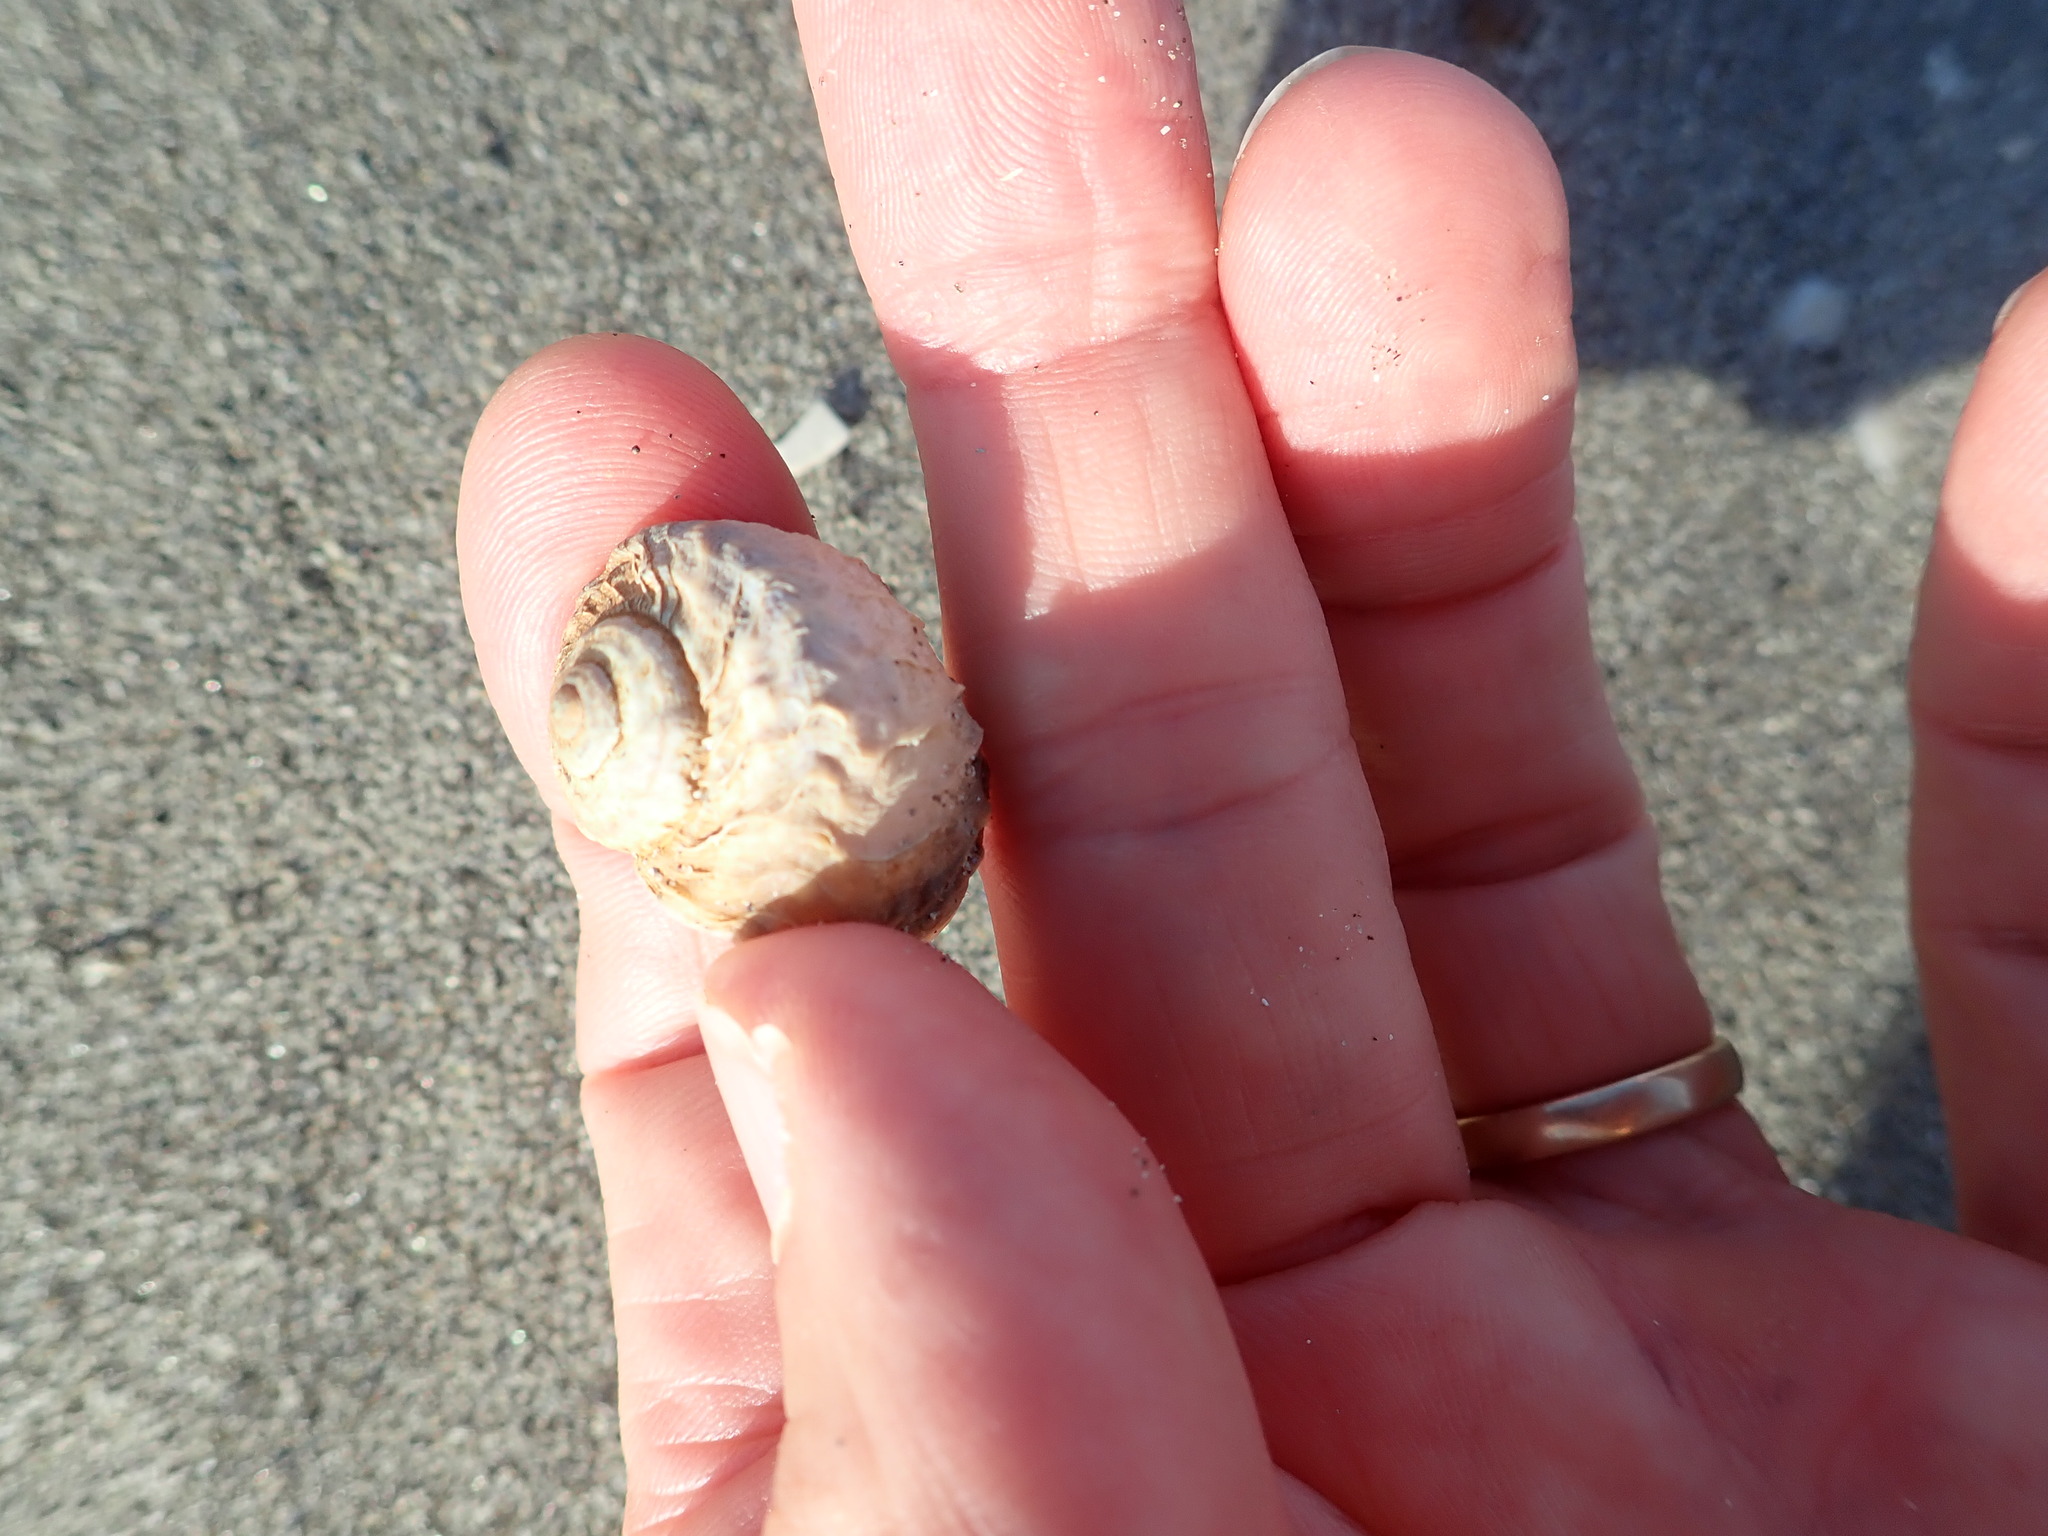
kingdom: Animalia
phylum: Mollusca
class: Gastropoda
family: Amphibolidae
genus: Amphibola
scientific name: Amphibola crenata
